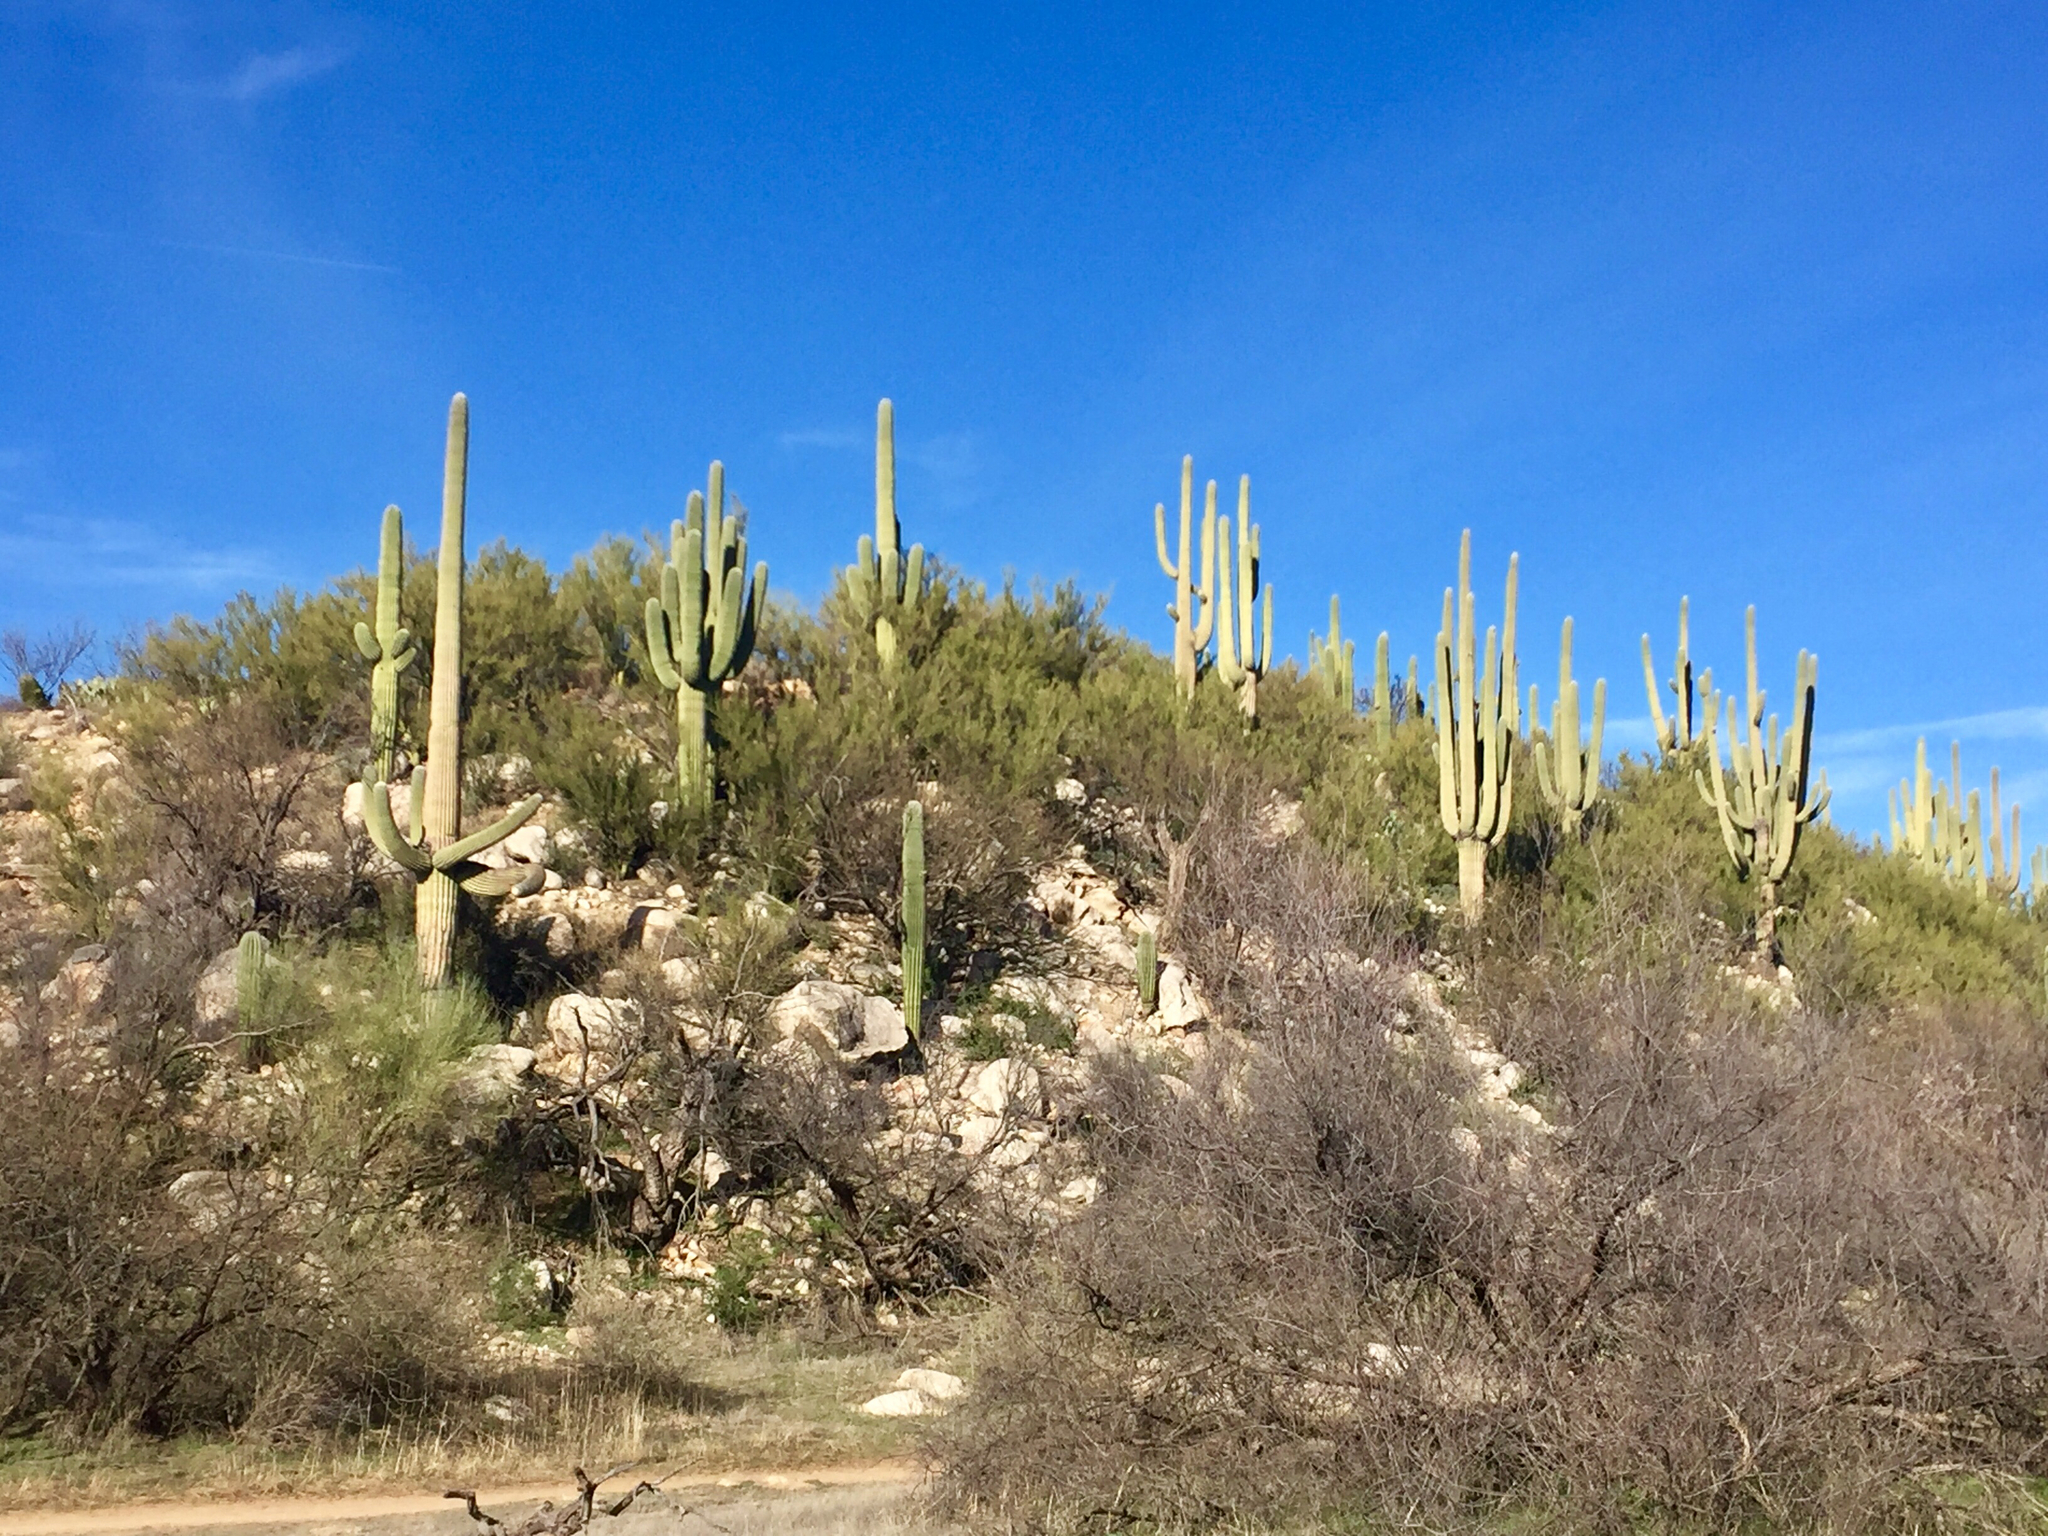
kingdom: Plantae
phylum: Tracheophyta
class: Magnoliopsida
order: Caryophyllales
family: Cactaceae
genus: Carnegiea
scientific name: Carnegiea gigantea
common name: Saguaro
